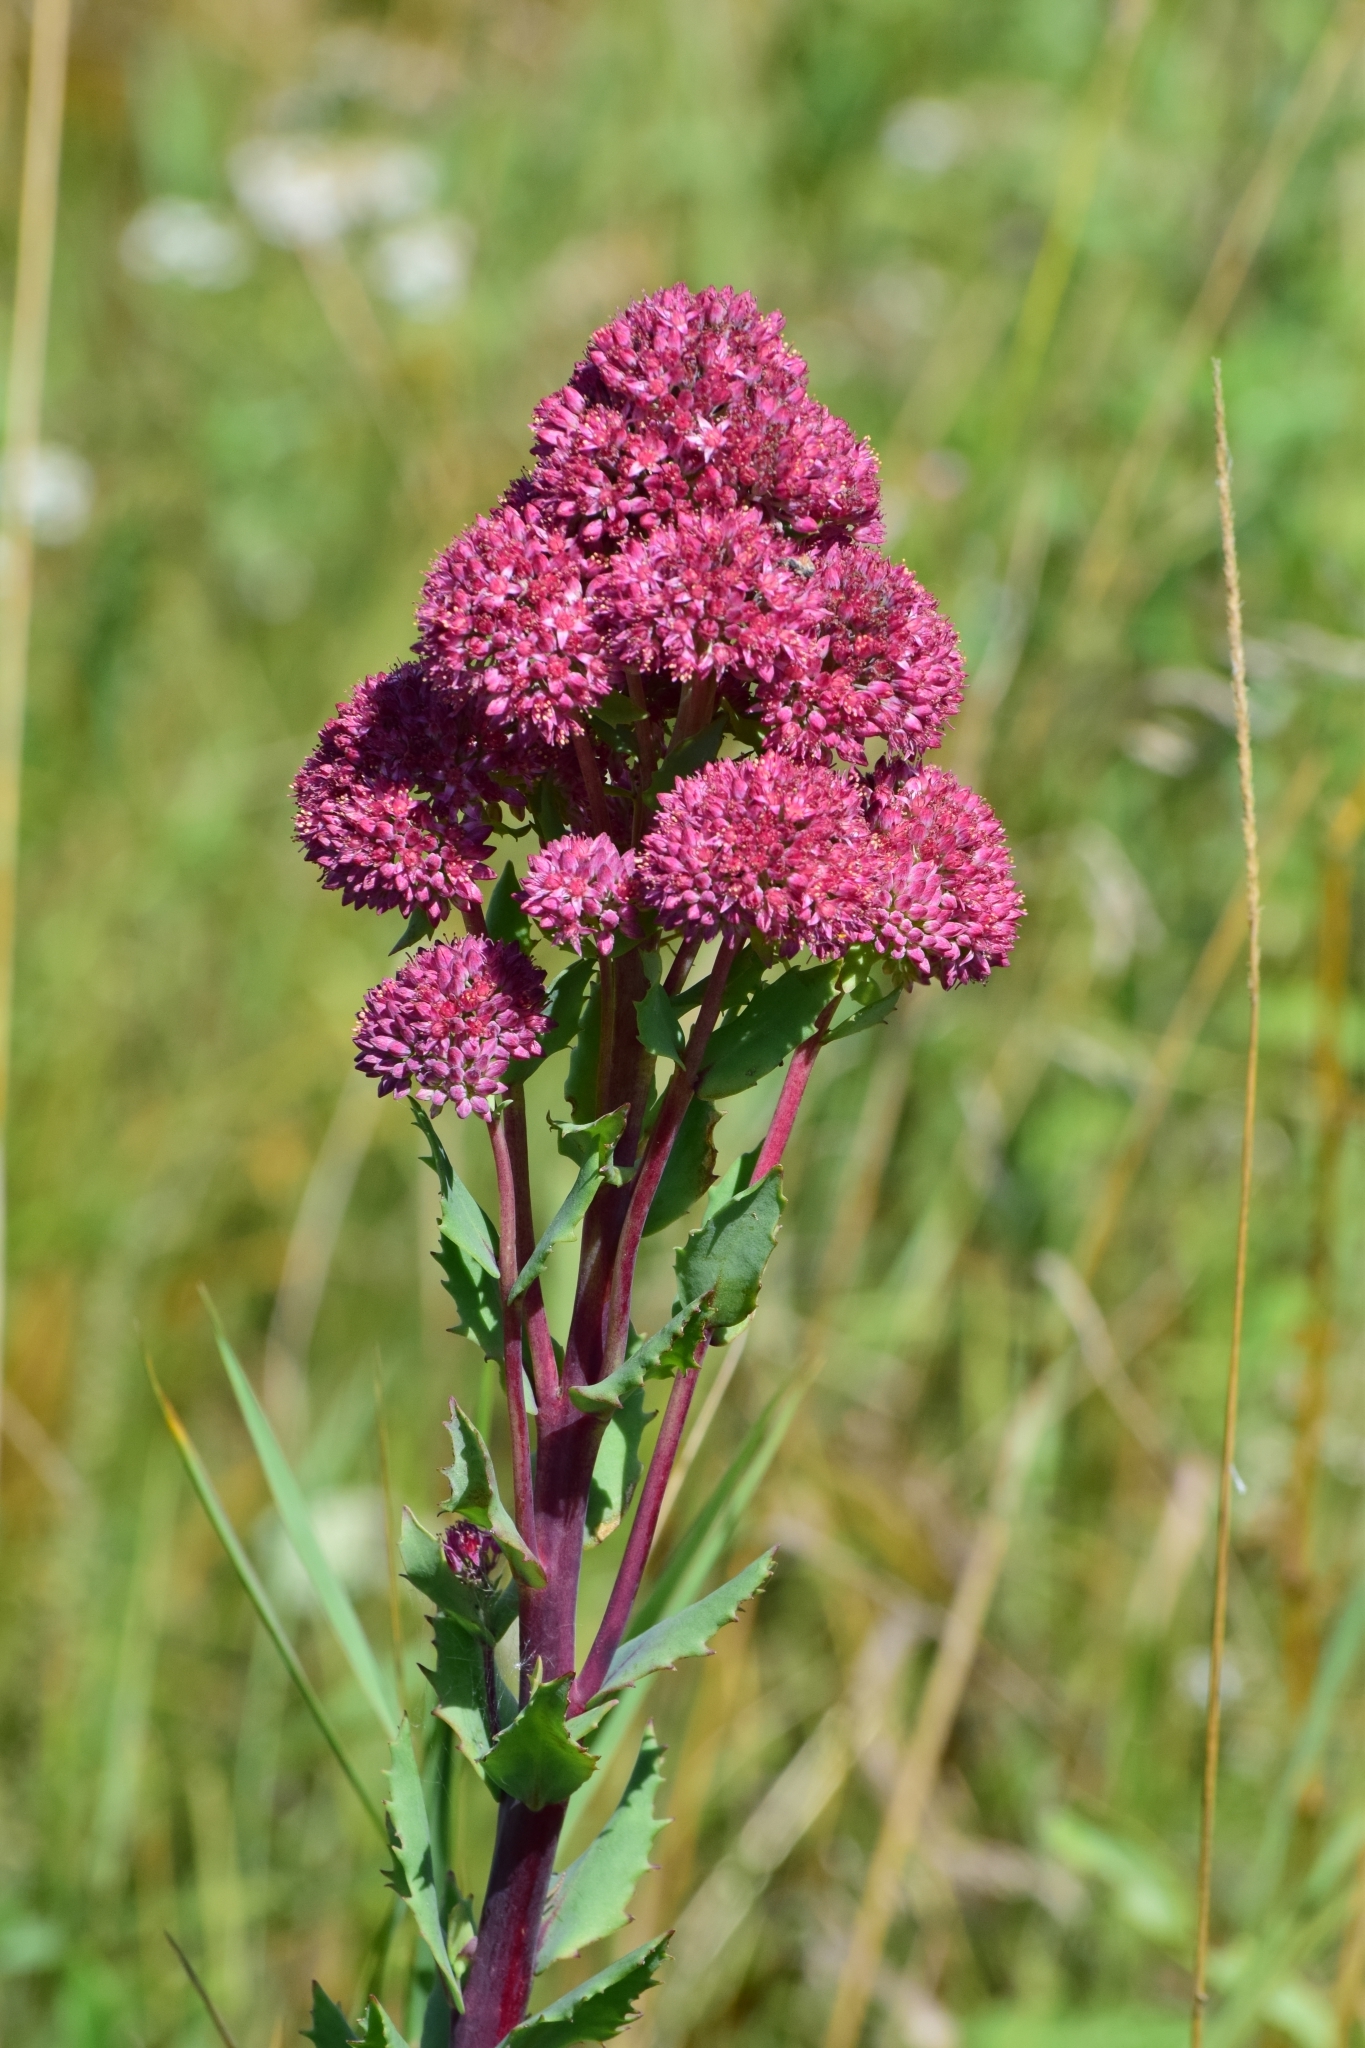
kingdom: Plantae
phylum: Tracheophyta
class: Magnoliopsida
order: Saxifragales
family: Crassulaceae
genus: Hylotelephium
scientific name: Hylotelephium telephium
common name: Live-forever
